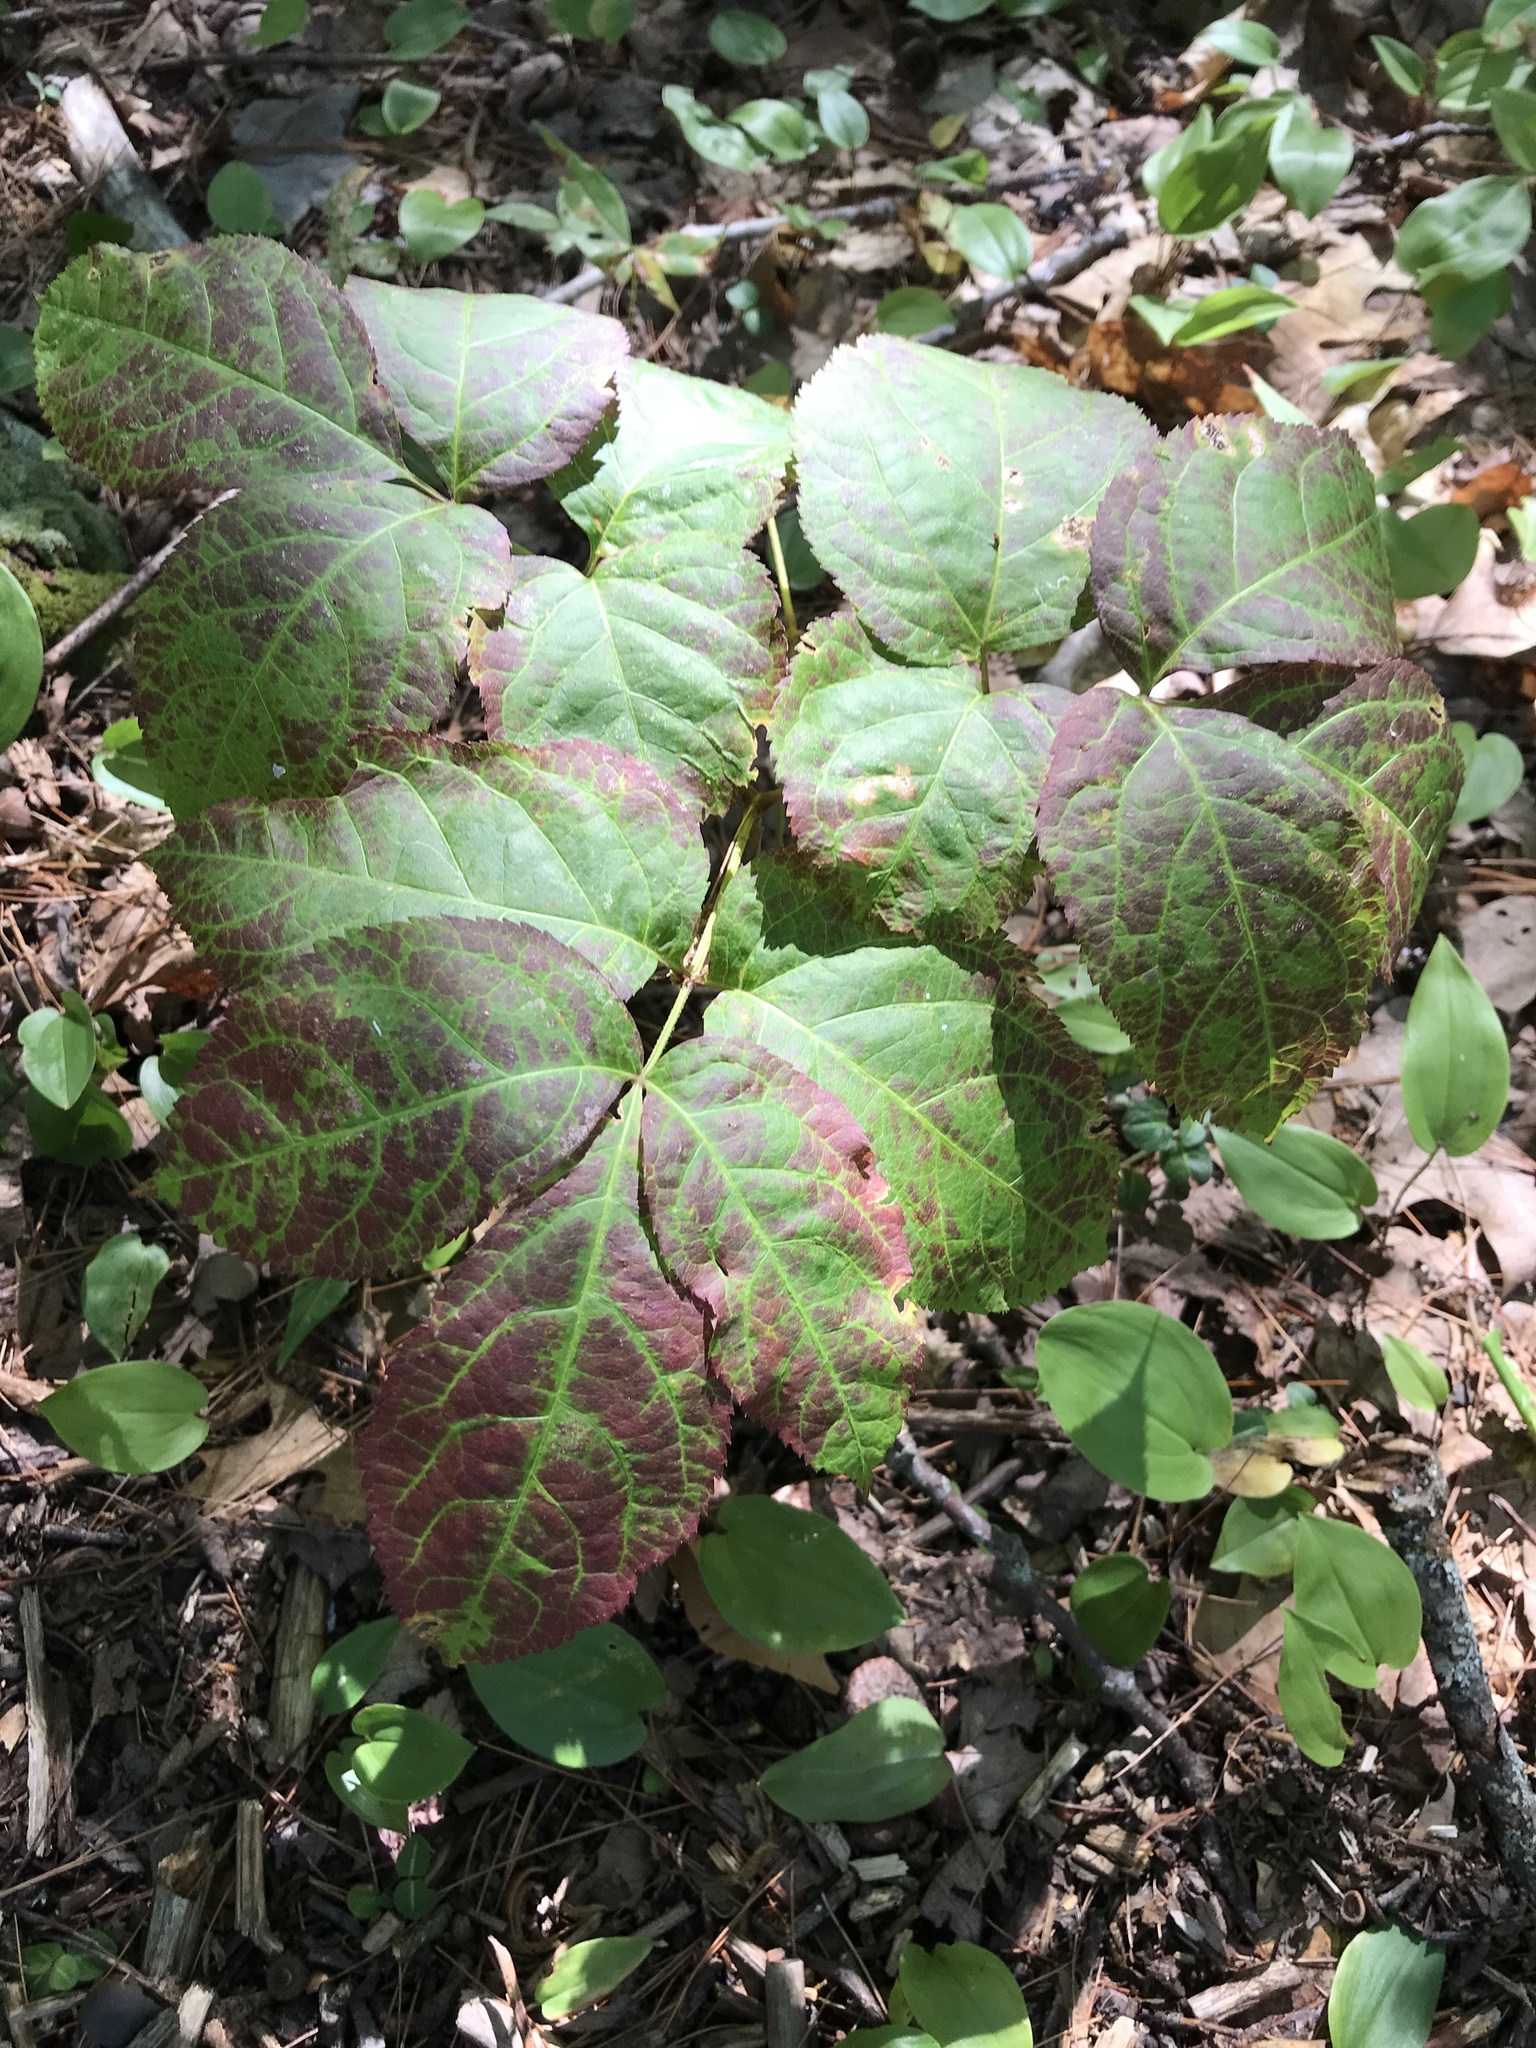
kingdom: Plantae
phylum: Tracheophyta
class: Magnoliopsida
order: Apiales
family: Araliaceae
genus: Aralia
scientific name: Aralia nudicaulis
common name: Wild sarsaparilla
